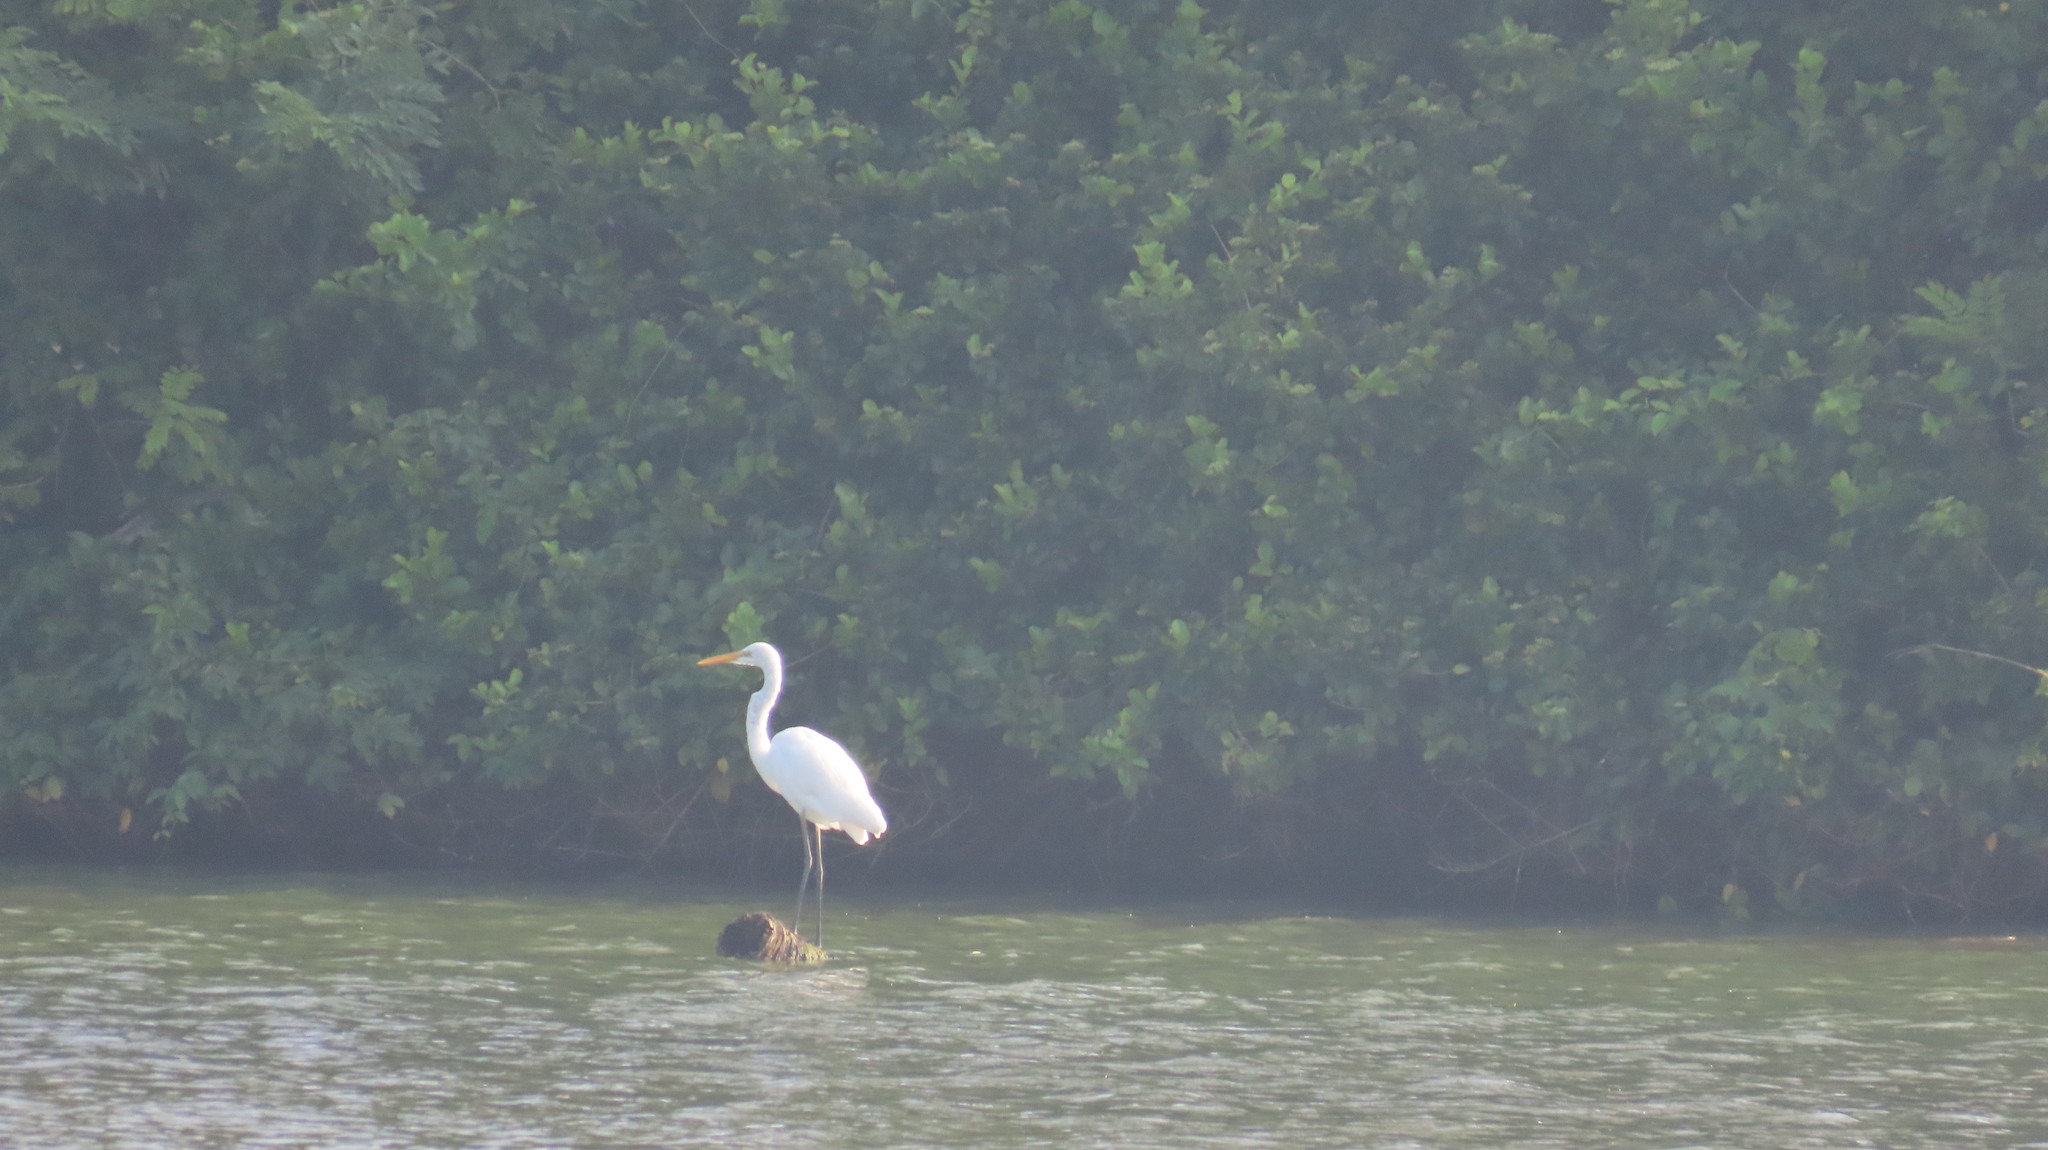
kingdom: Animalia
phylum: Chordata
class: Aves
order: Pelecaniformes
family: Ardeidae
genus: Ardea
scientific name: Ardea alba
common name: Great egret
